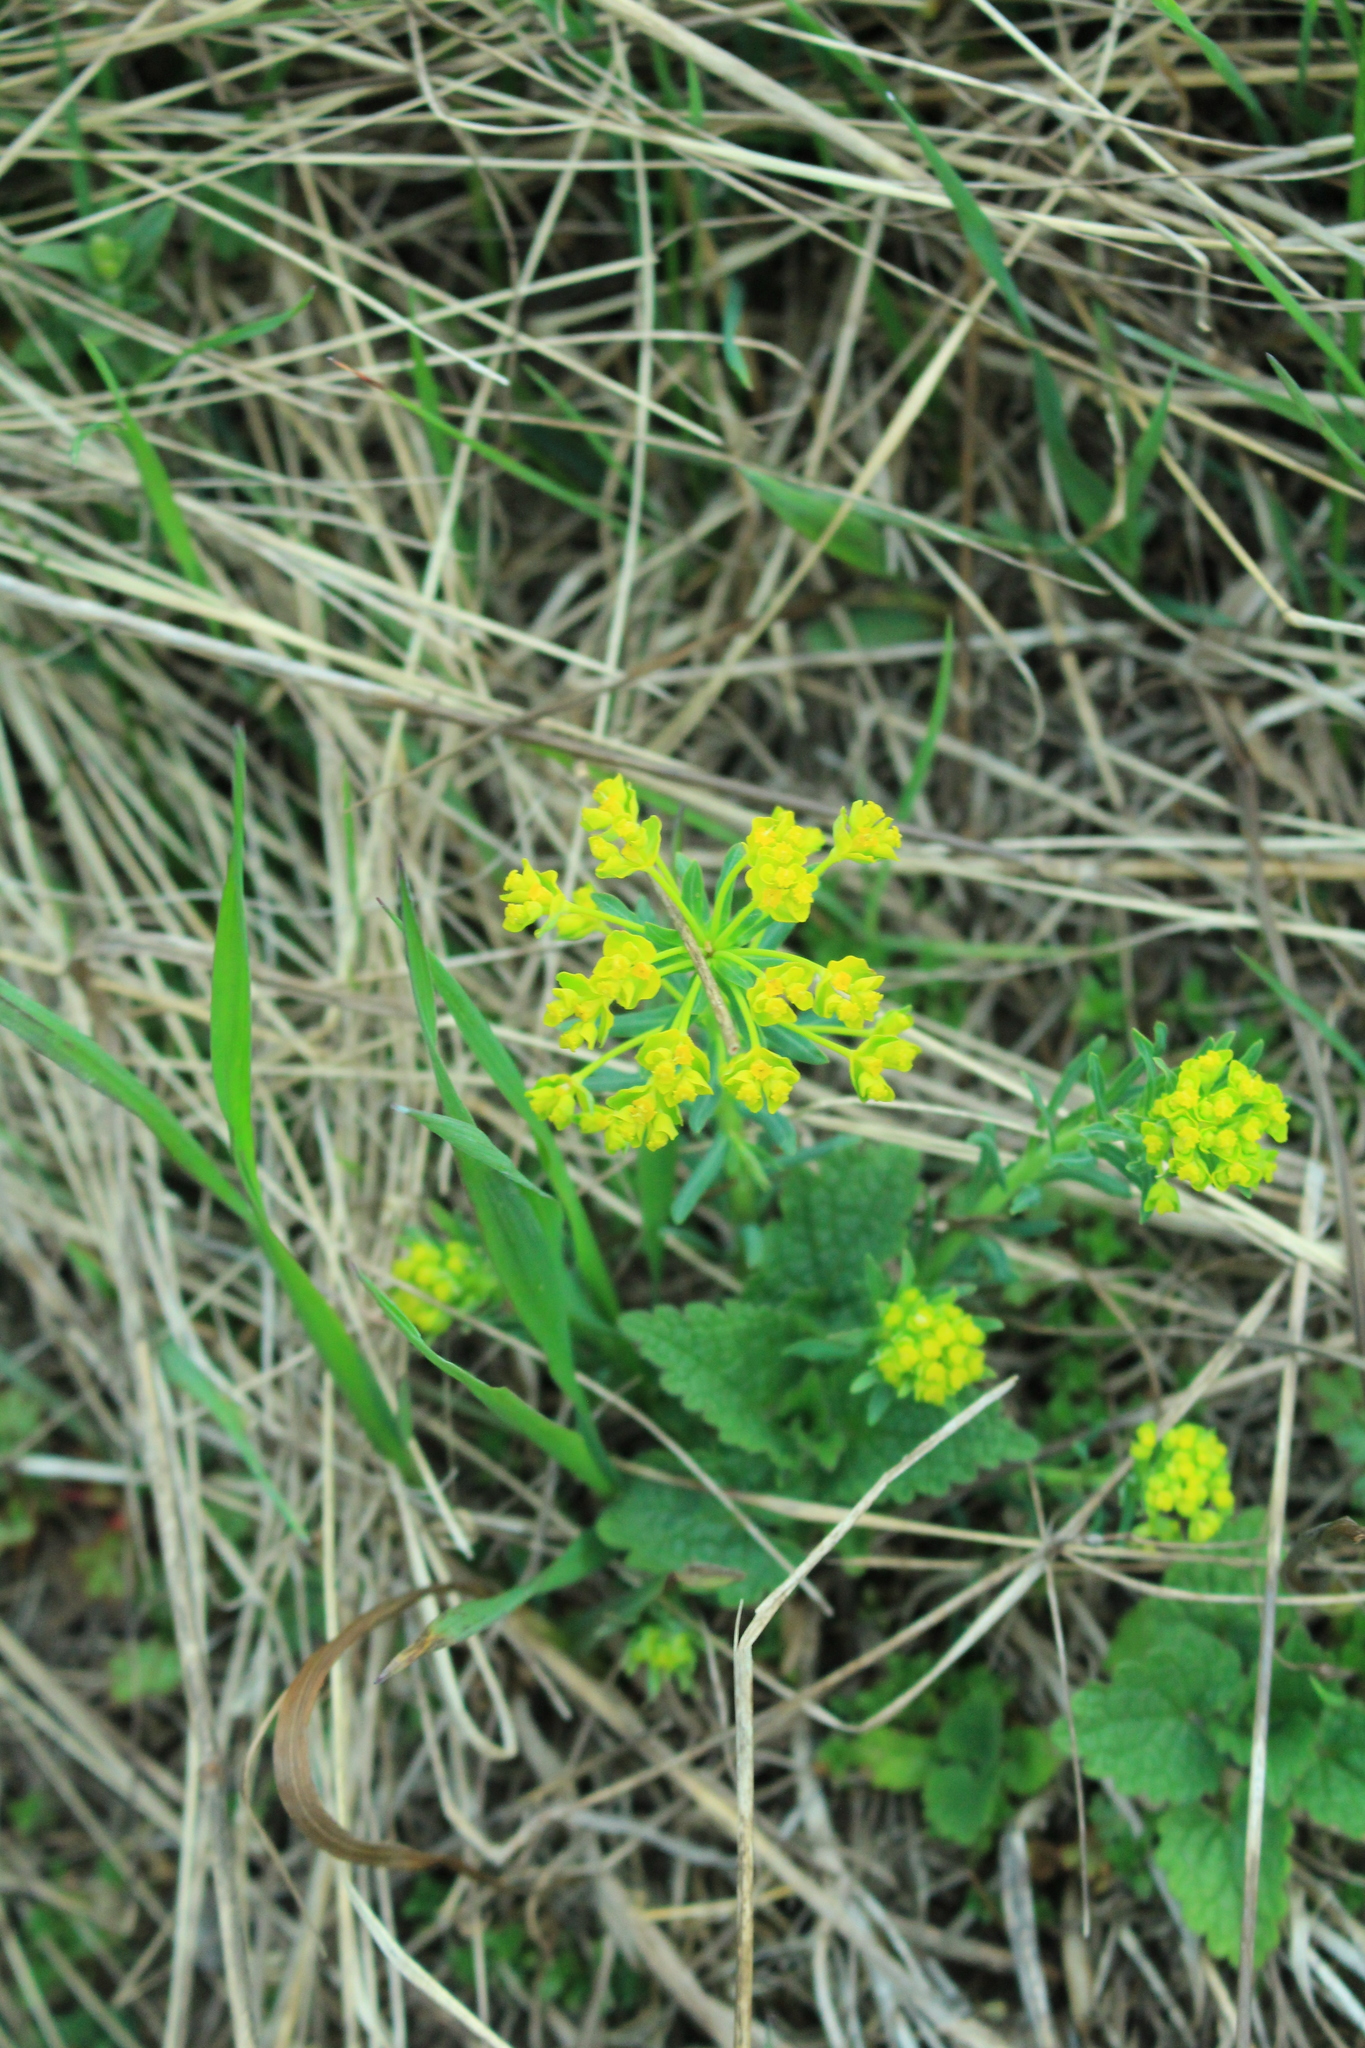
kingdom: Plantae
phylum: Tracheophyta
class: Magnoliopsida
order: Malpighiales
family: Euphorbiaceae
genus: Euphorbia
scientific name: Euphorbia cyparissias
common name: Cypress spurge
